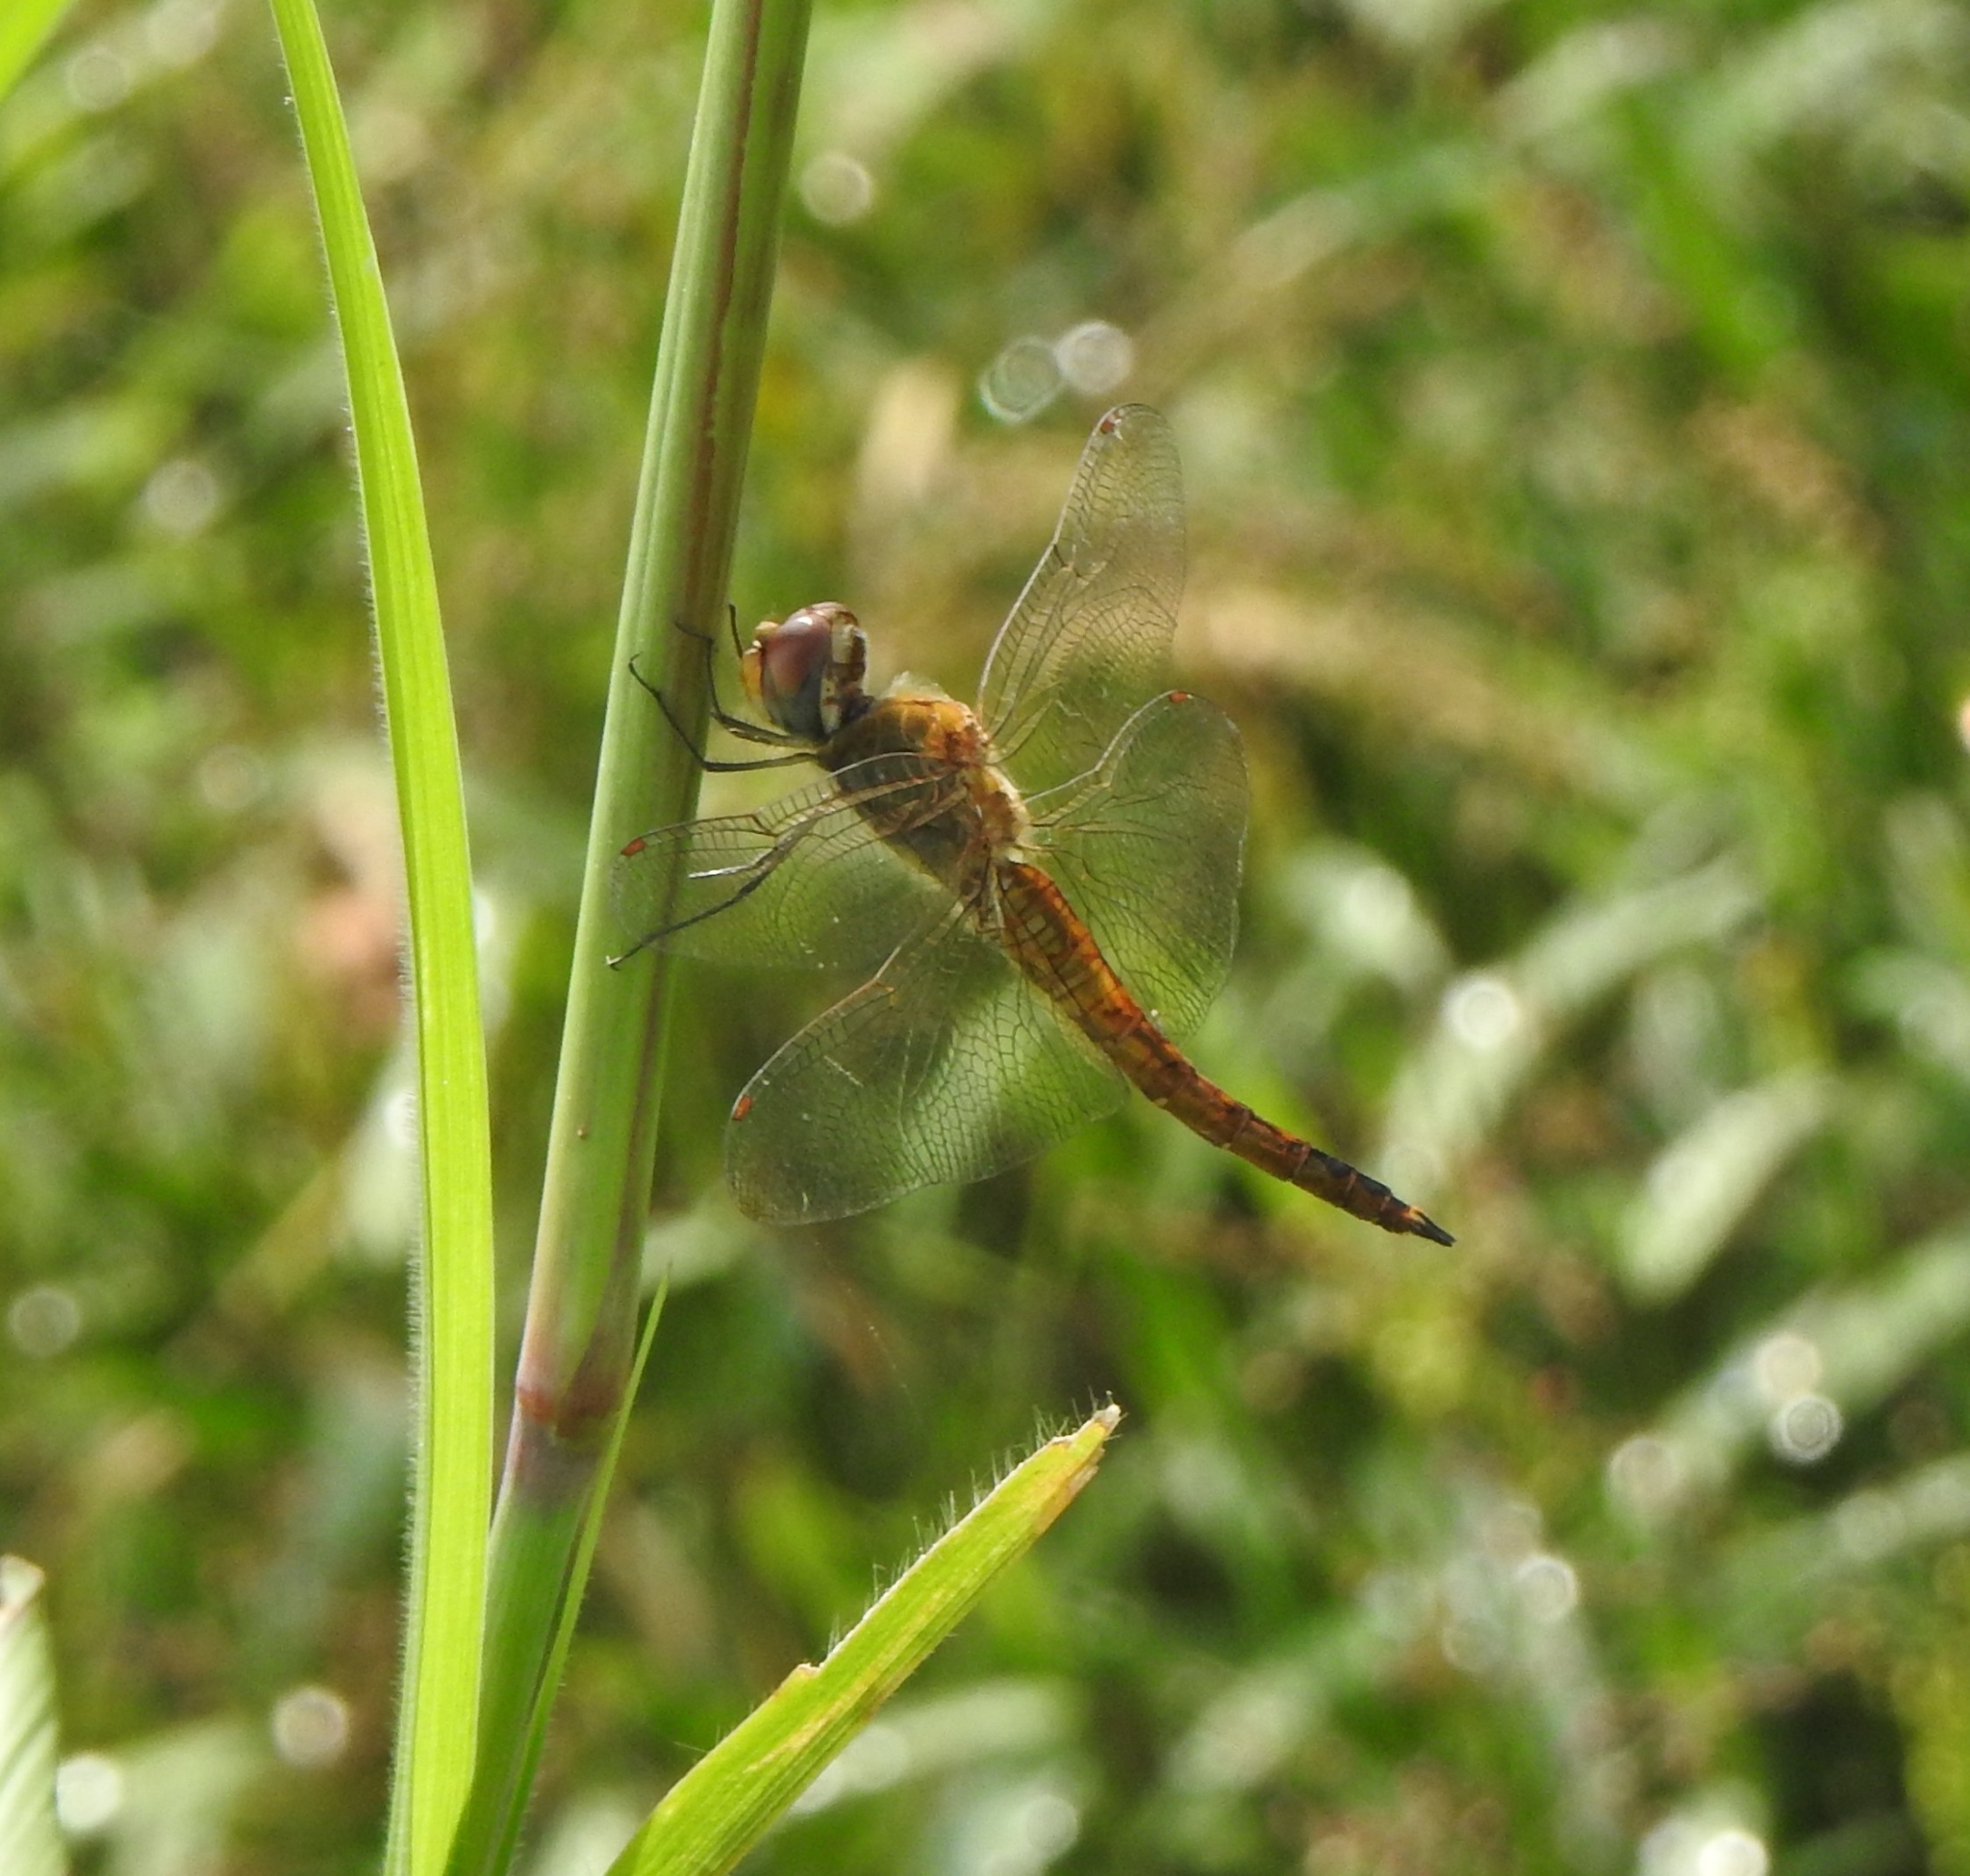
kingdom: Animalia
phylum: Arthropoda
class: Insecta
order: Odonata
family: Libellulidae
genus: Pantala
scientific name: Pantala flavescens
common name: Wandering glider
